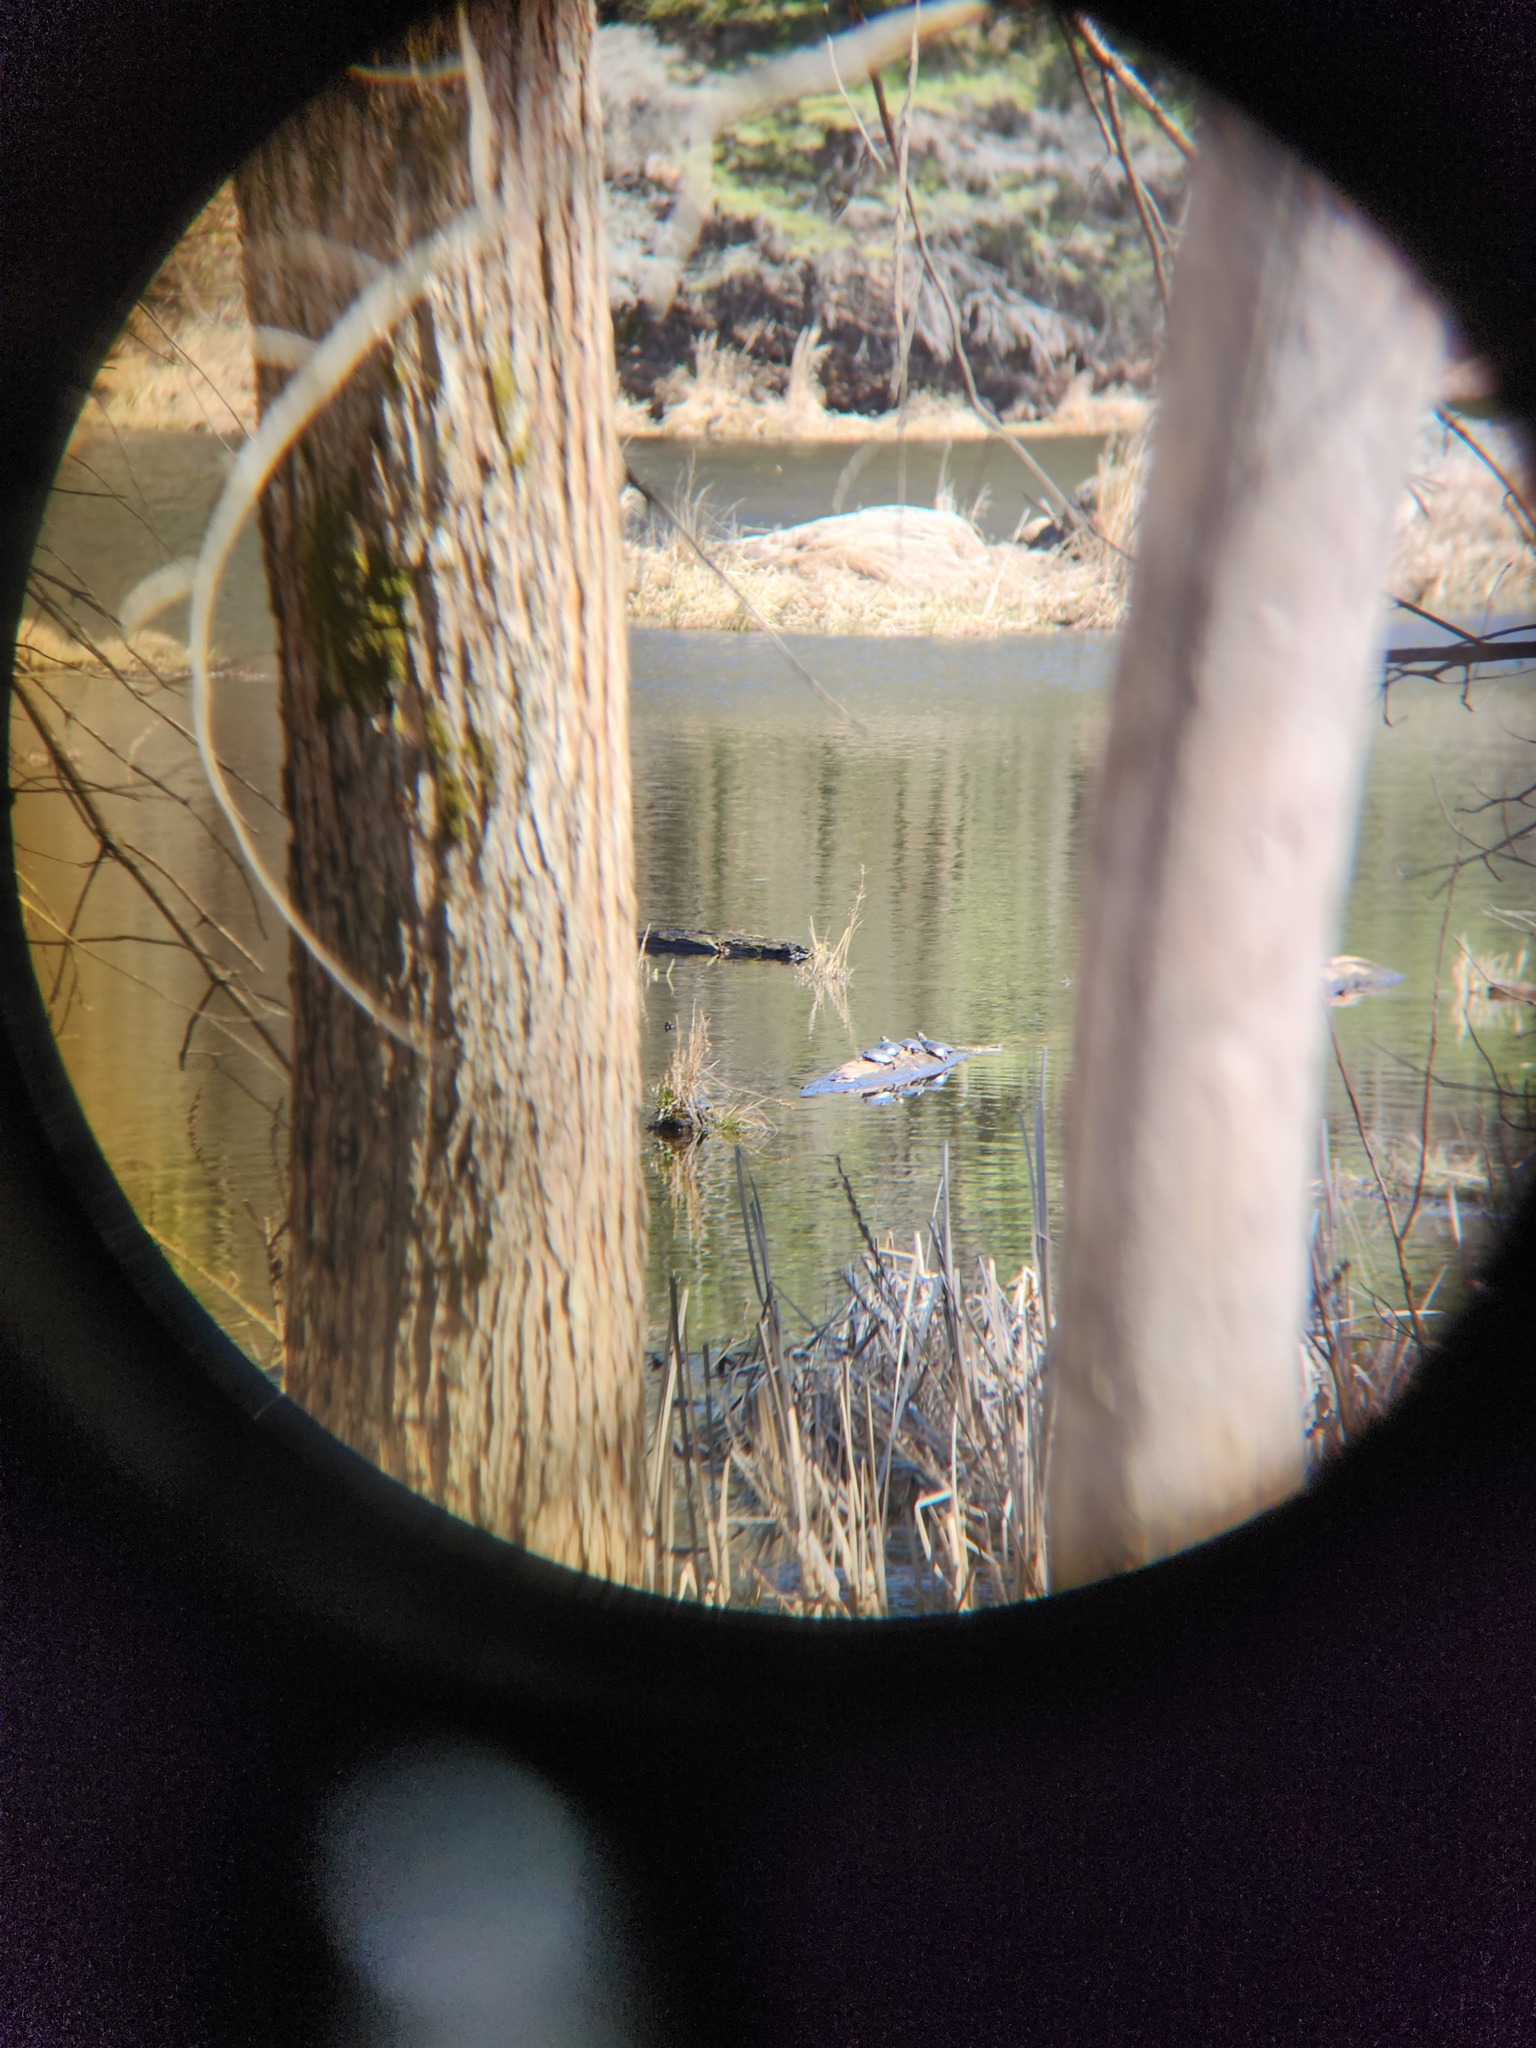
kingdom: Animalia
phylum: Chordata
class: Testudines
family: Emydidae
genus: Chrysemys
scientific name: Chrysemys picta
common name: Painted turtle
